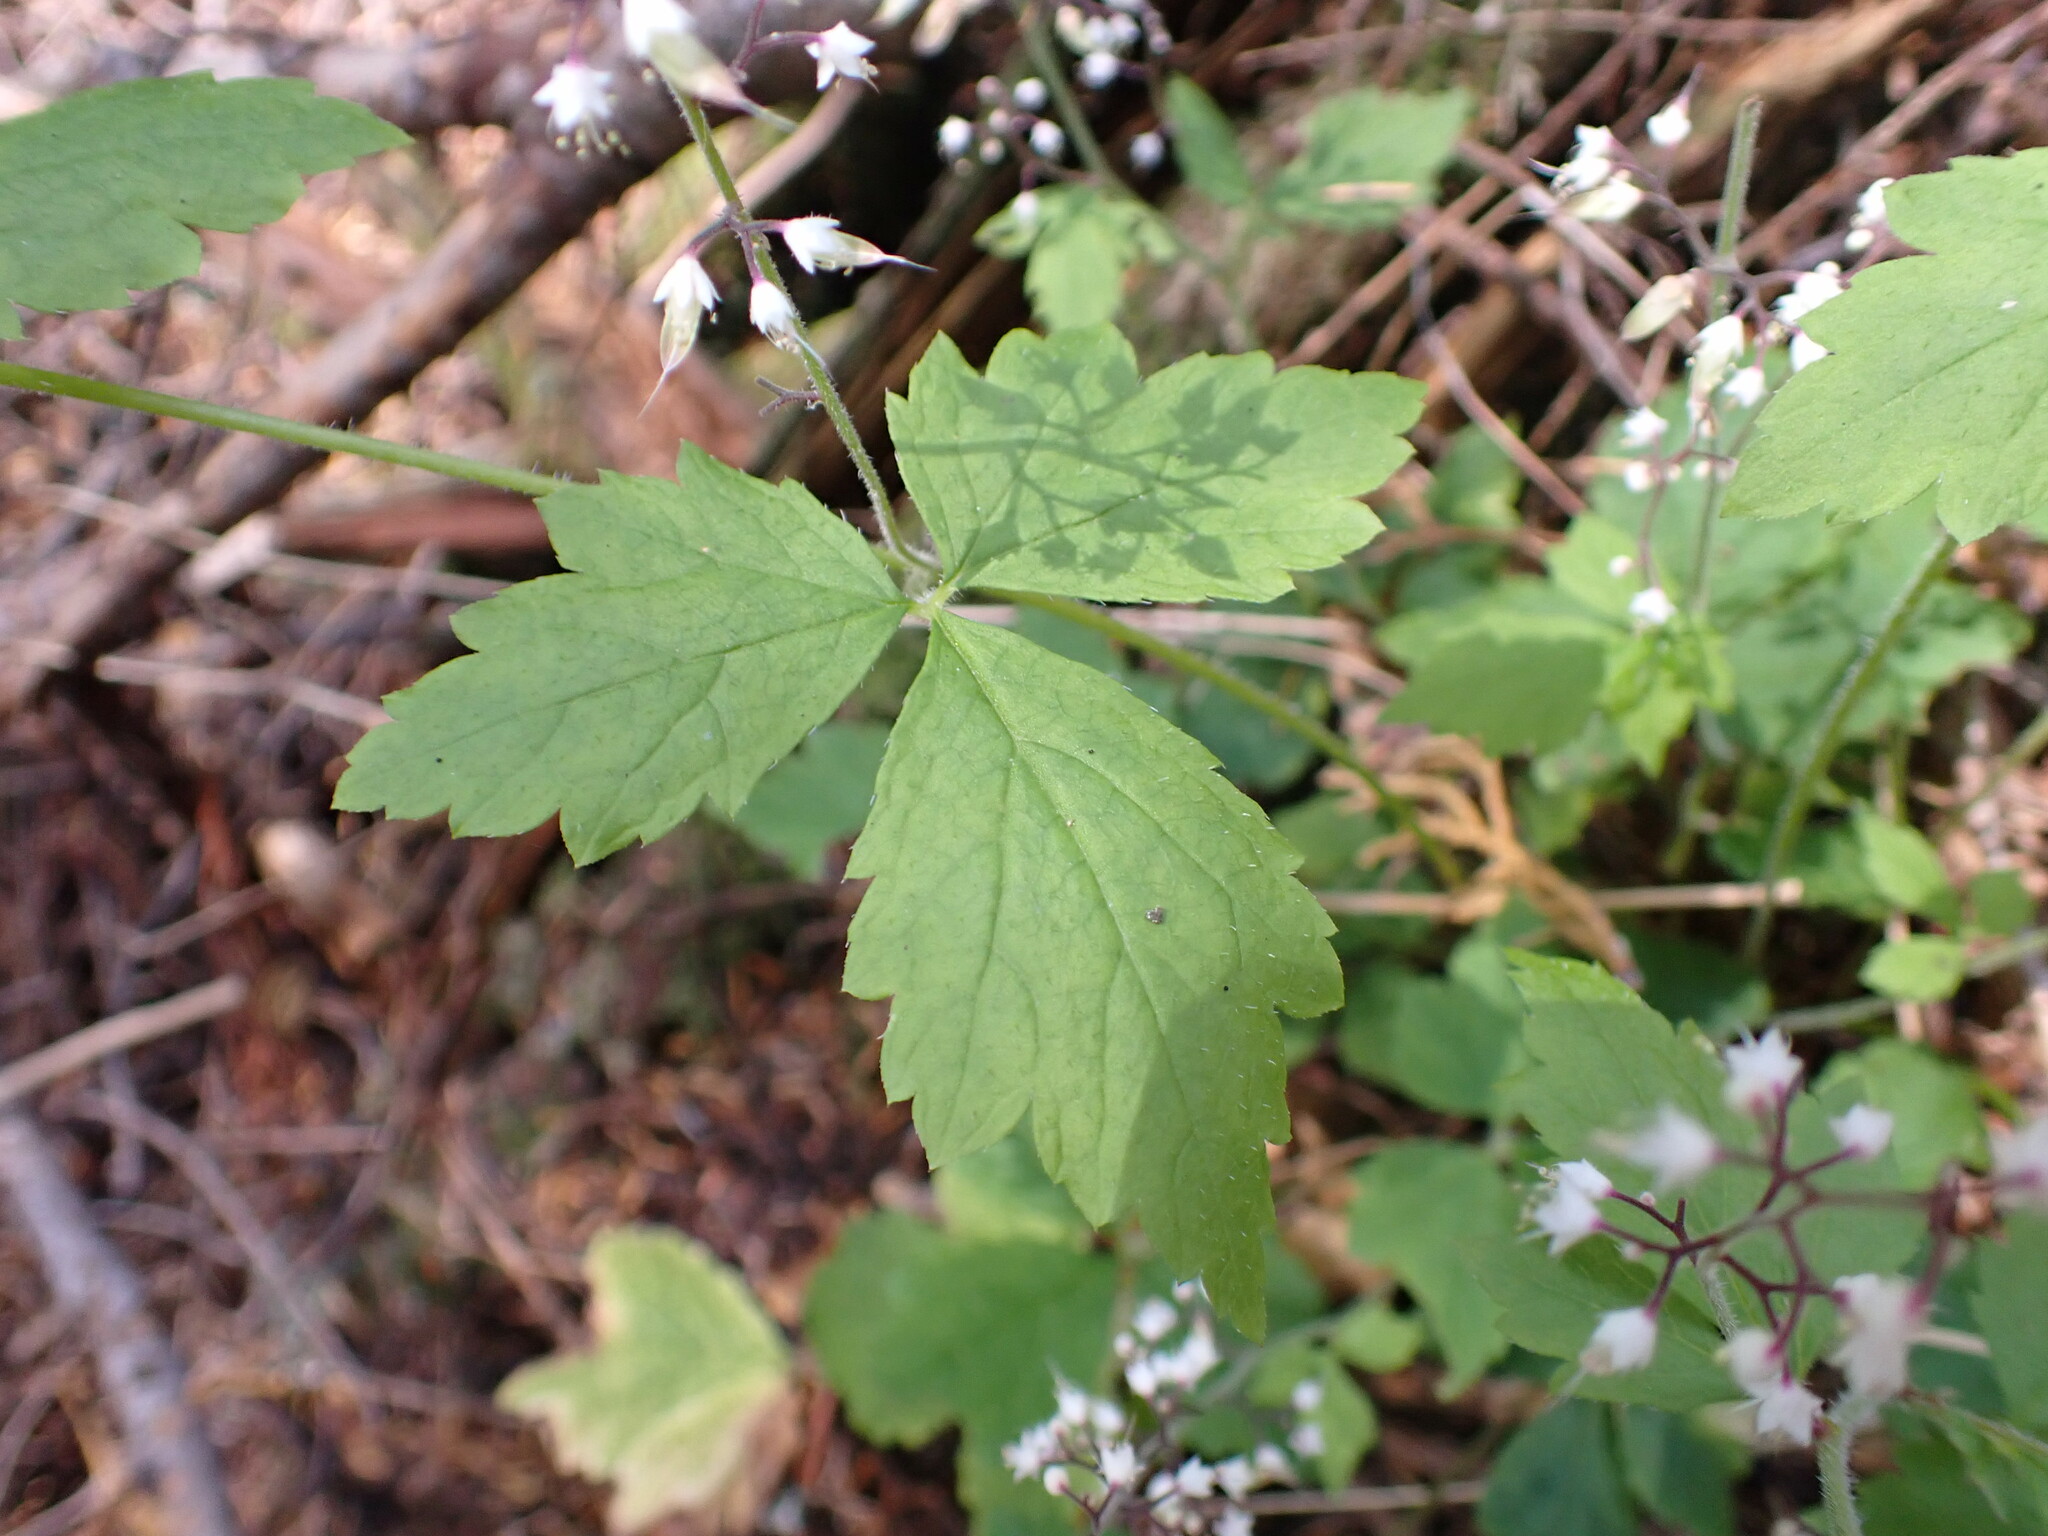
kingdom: Plantae
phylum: Tracheophyta
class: Magnoliopsida
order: Saxifragales
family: Saxifragaceae
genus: Tiarella
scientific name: Tiarella trifoliata
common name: Sugar-scoop
